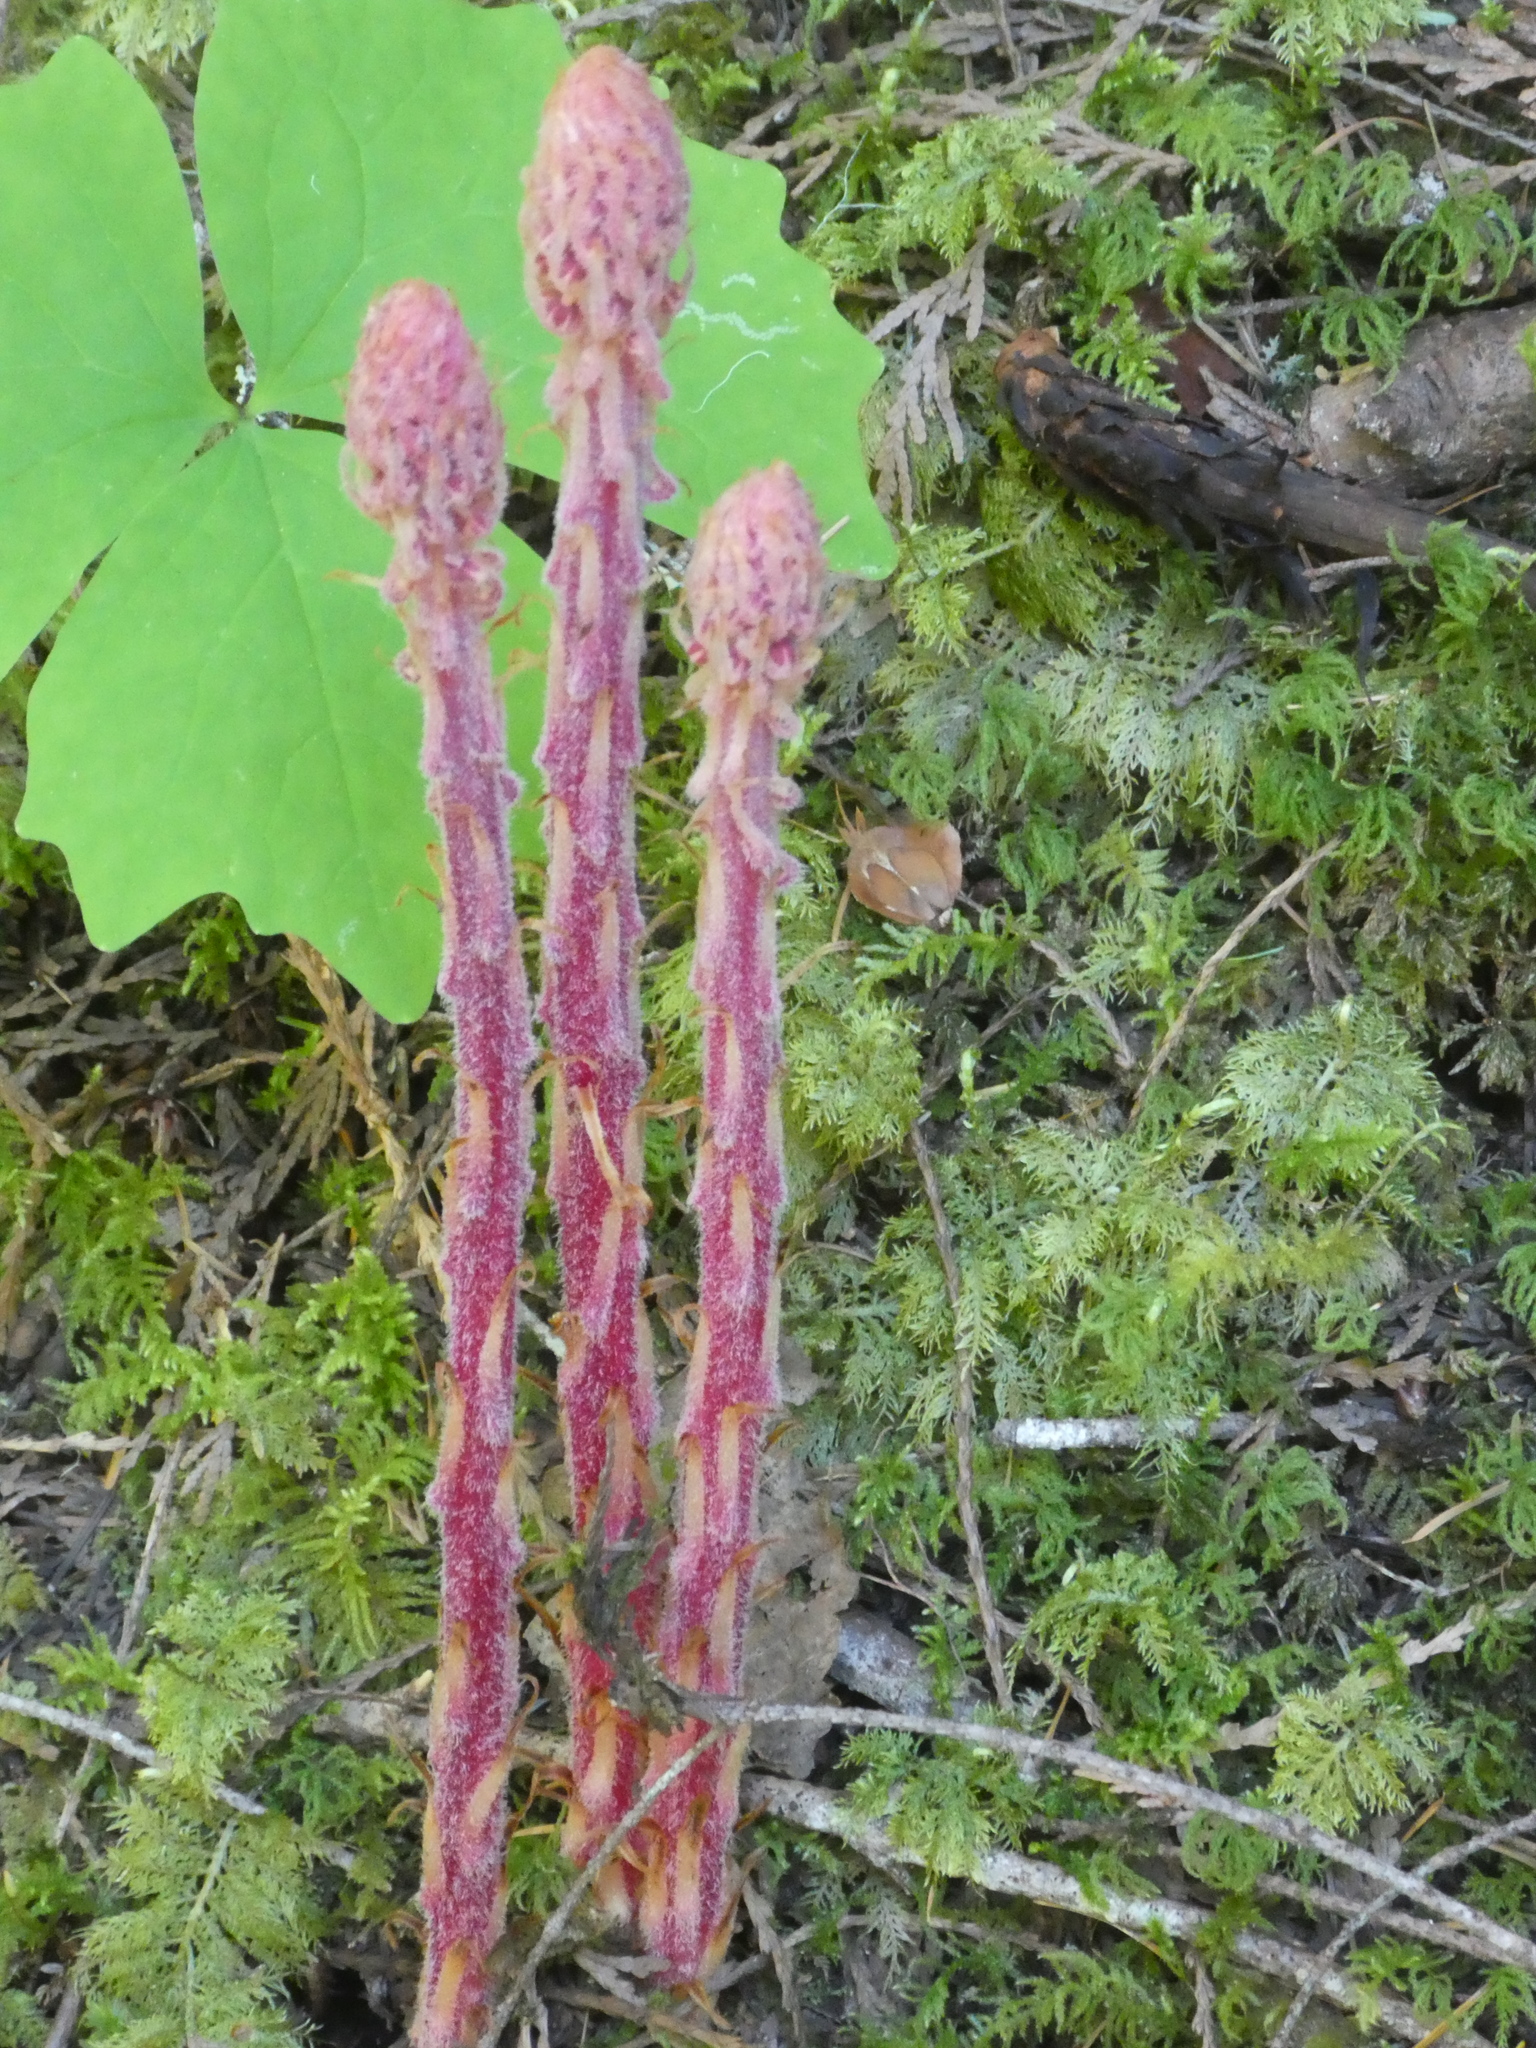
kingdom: Plantae
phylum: Tracheophyta
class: Magnoliopsida
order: Ericales
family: Ericaceae
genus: Pterospora
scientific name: Pterospora andromedea
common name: Giant bird's-nest
